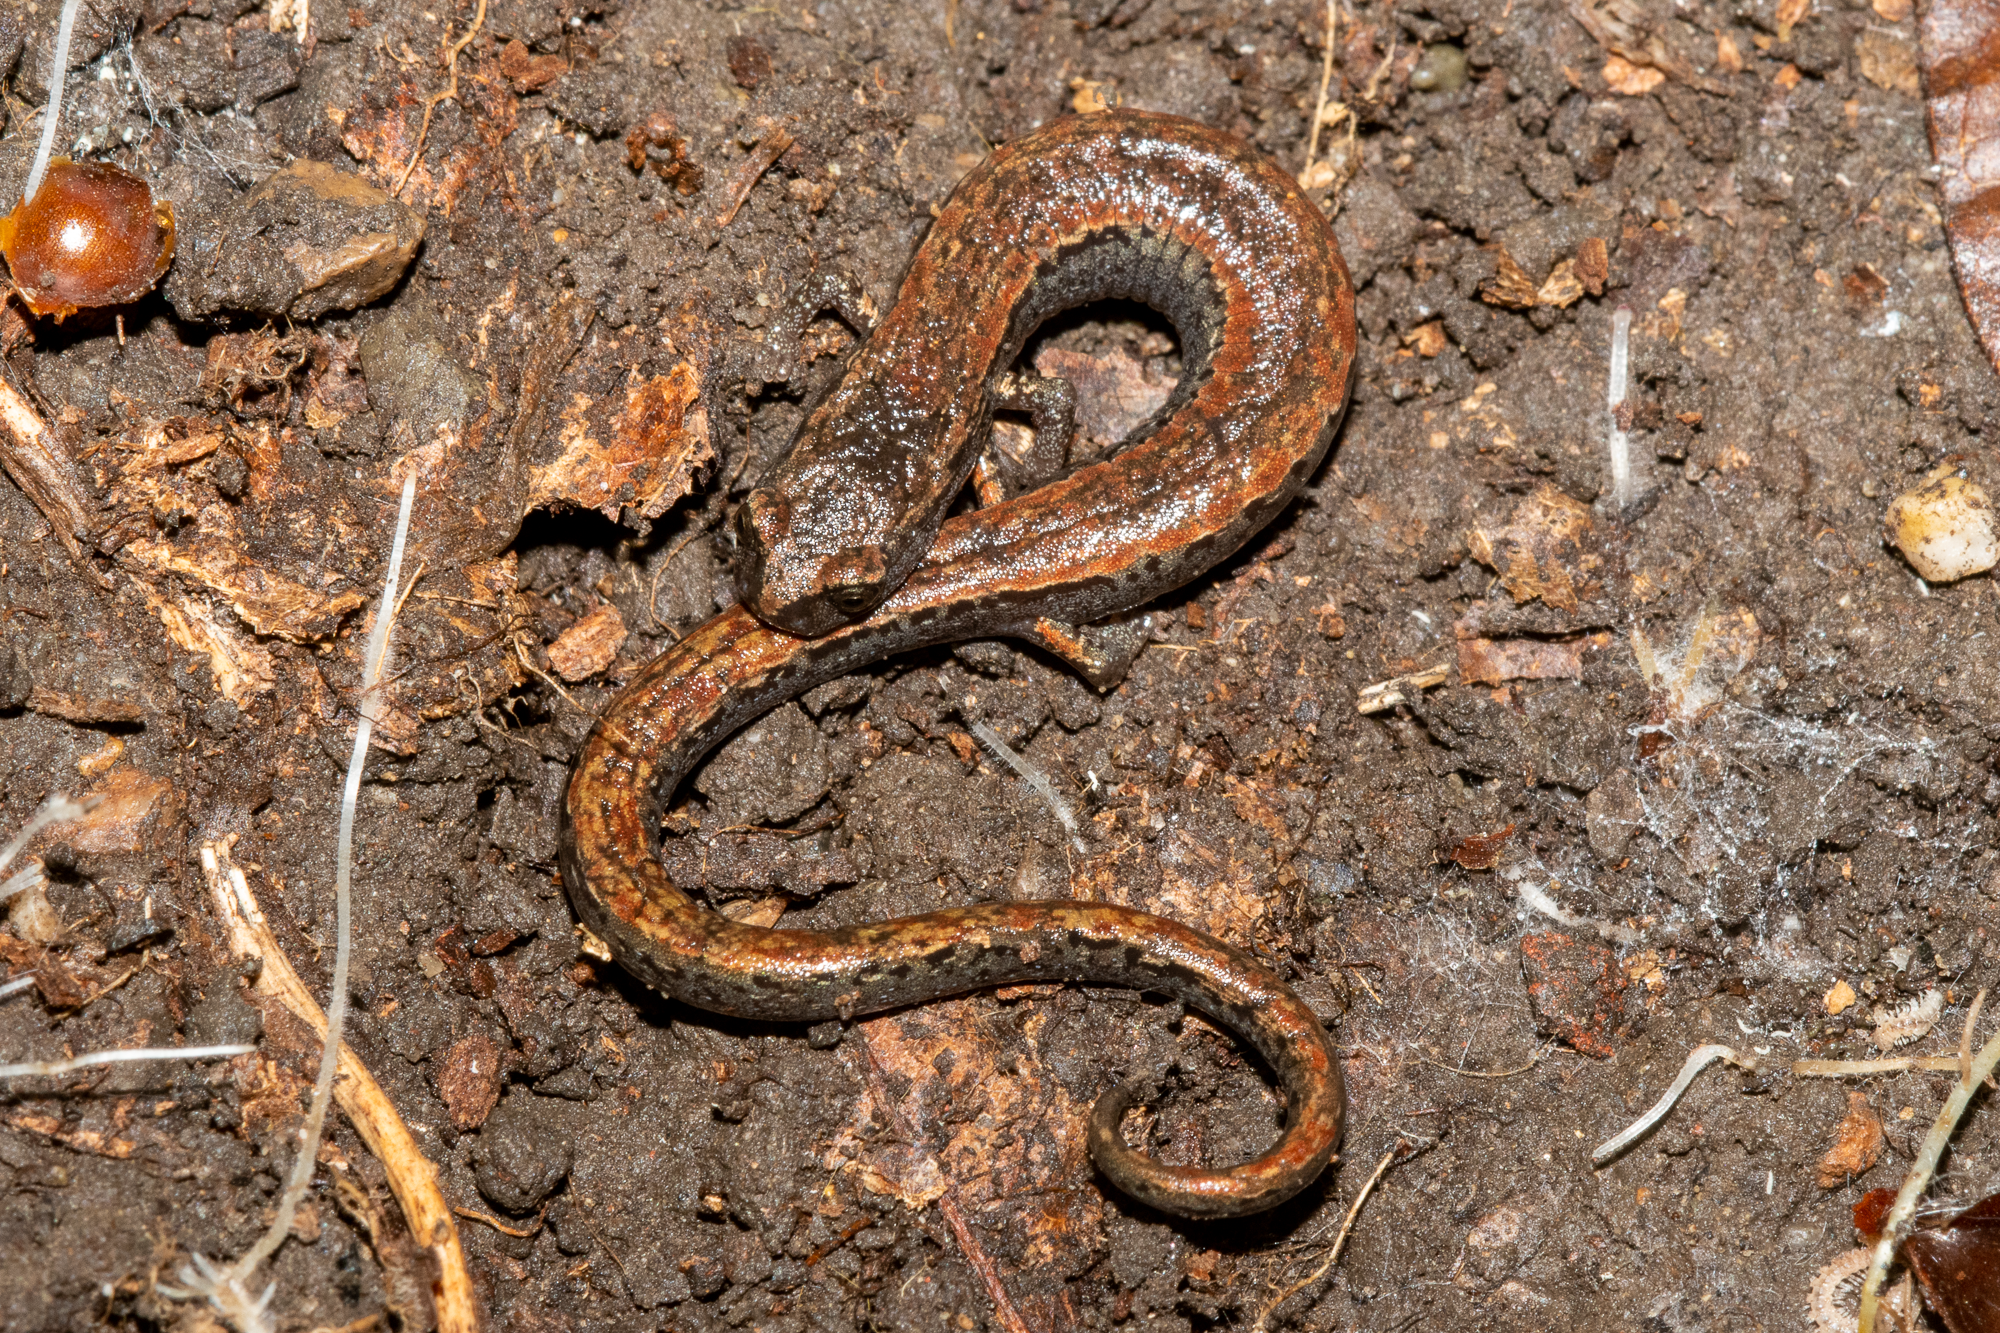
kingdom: Animalia
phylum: Chordata
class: Amphibia
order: Caudata
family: Plethodontidae
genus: Batrachoseps
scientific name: Batrachoseps attenuatus
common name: California slender salamander
